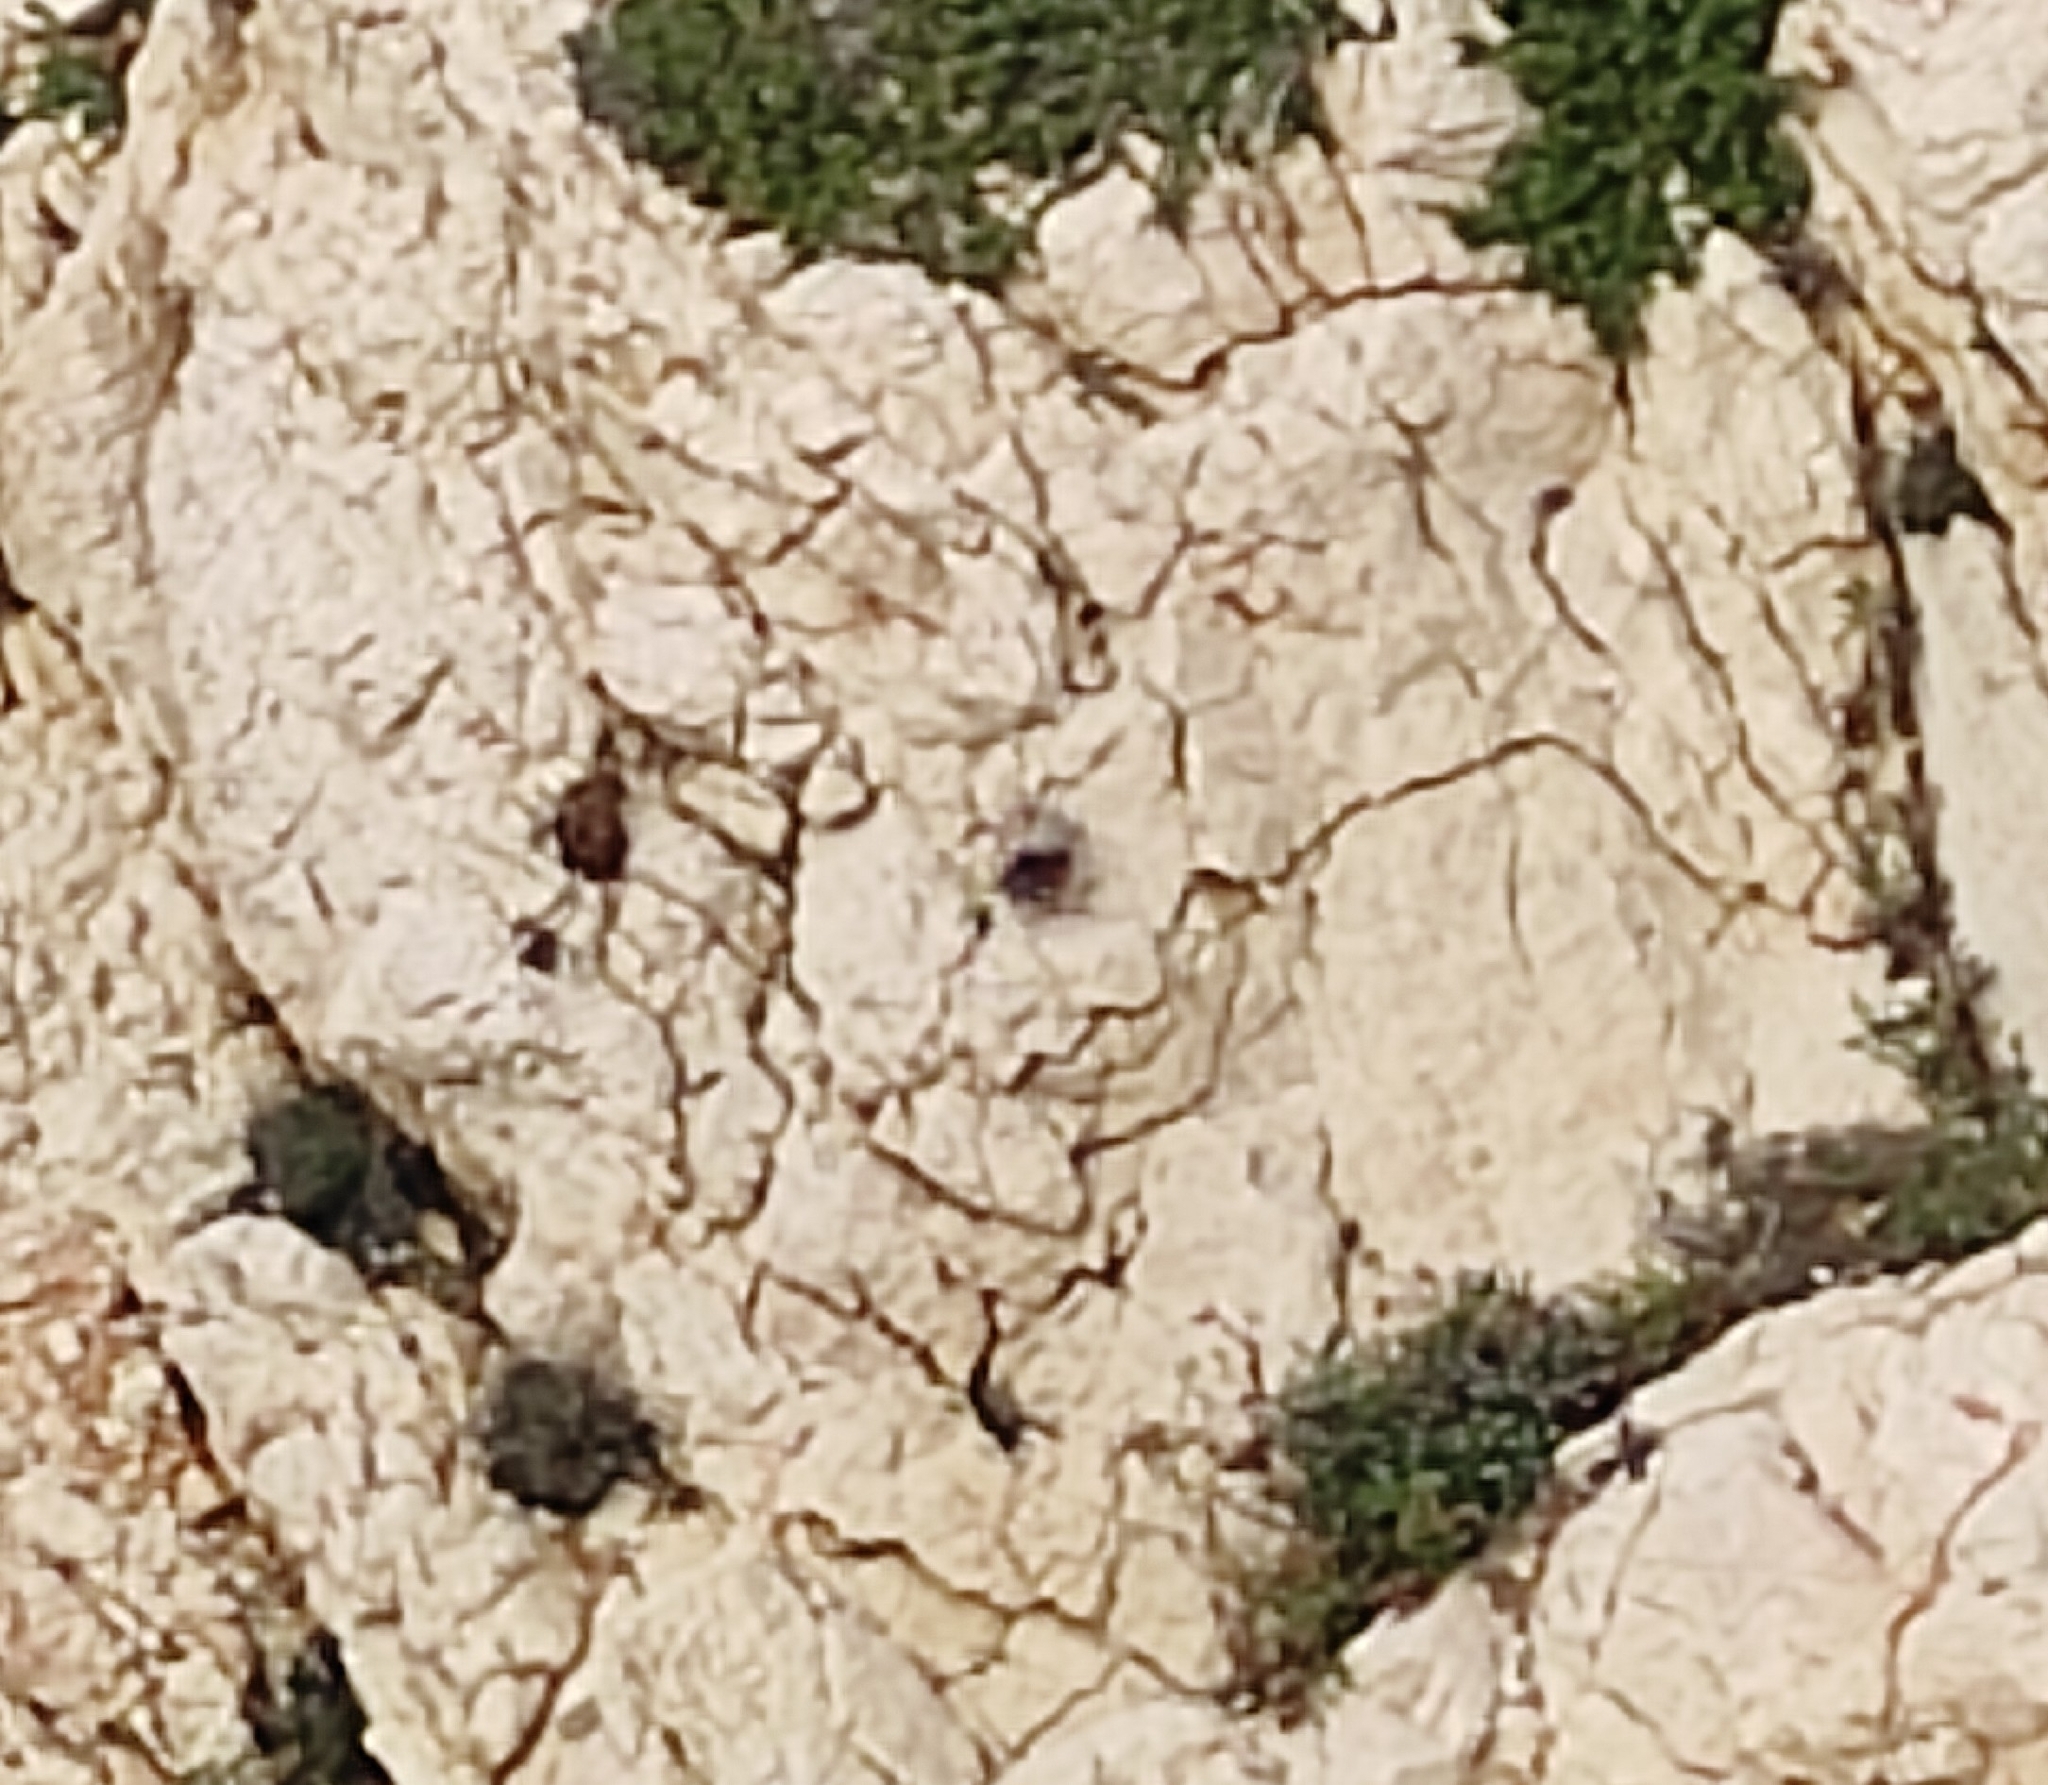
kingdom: Animalia
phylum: Chordata
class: Aves
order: Passeriformes
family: Tichodromidae
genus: Tichodroma
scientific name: Tichodroma muraria
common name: Wallcreeper
